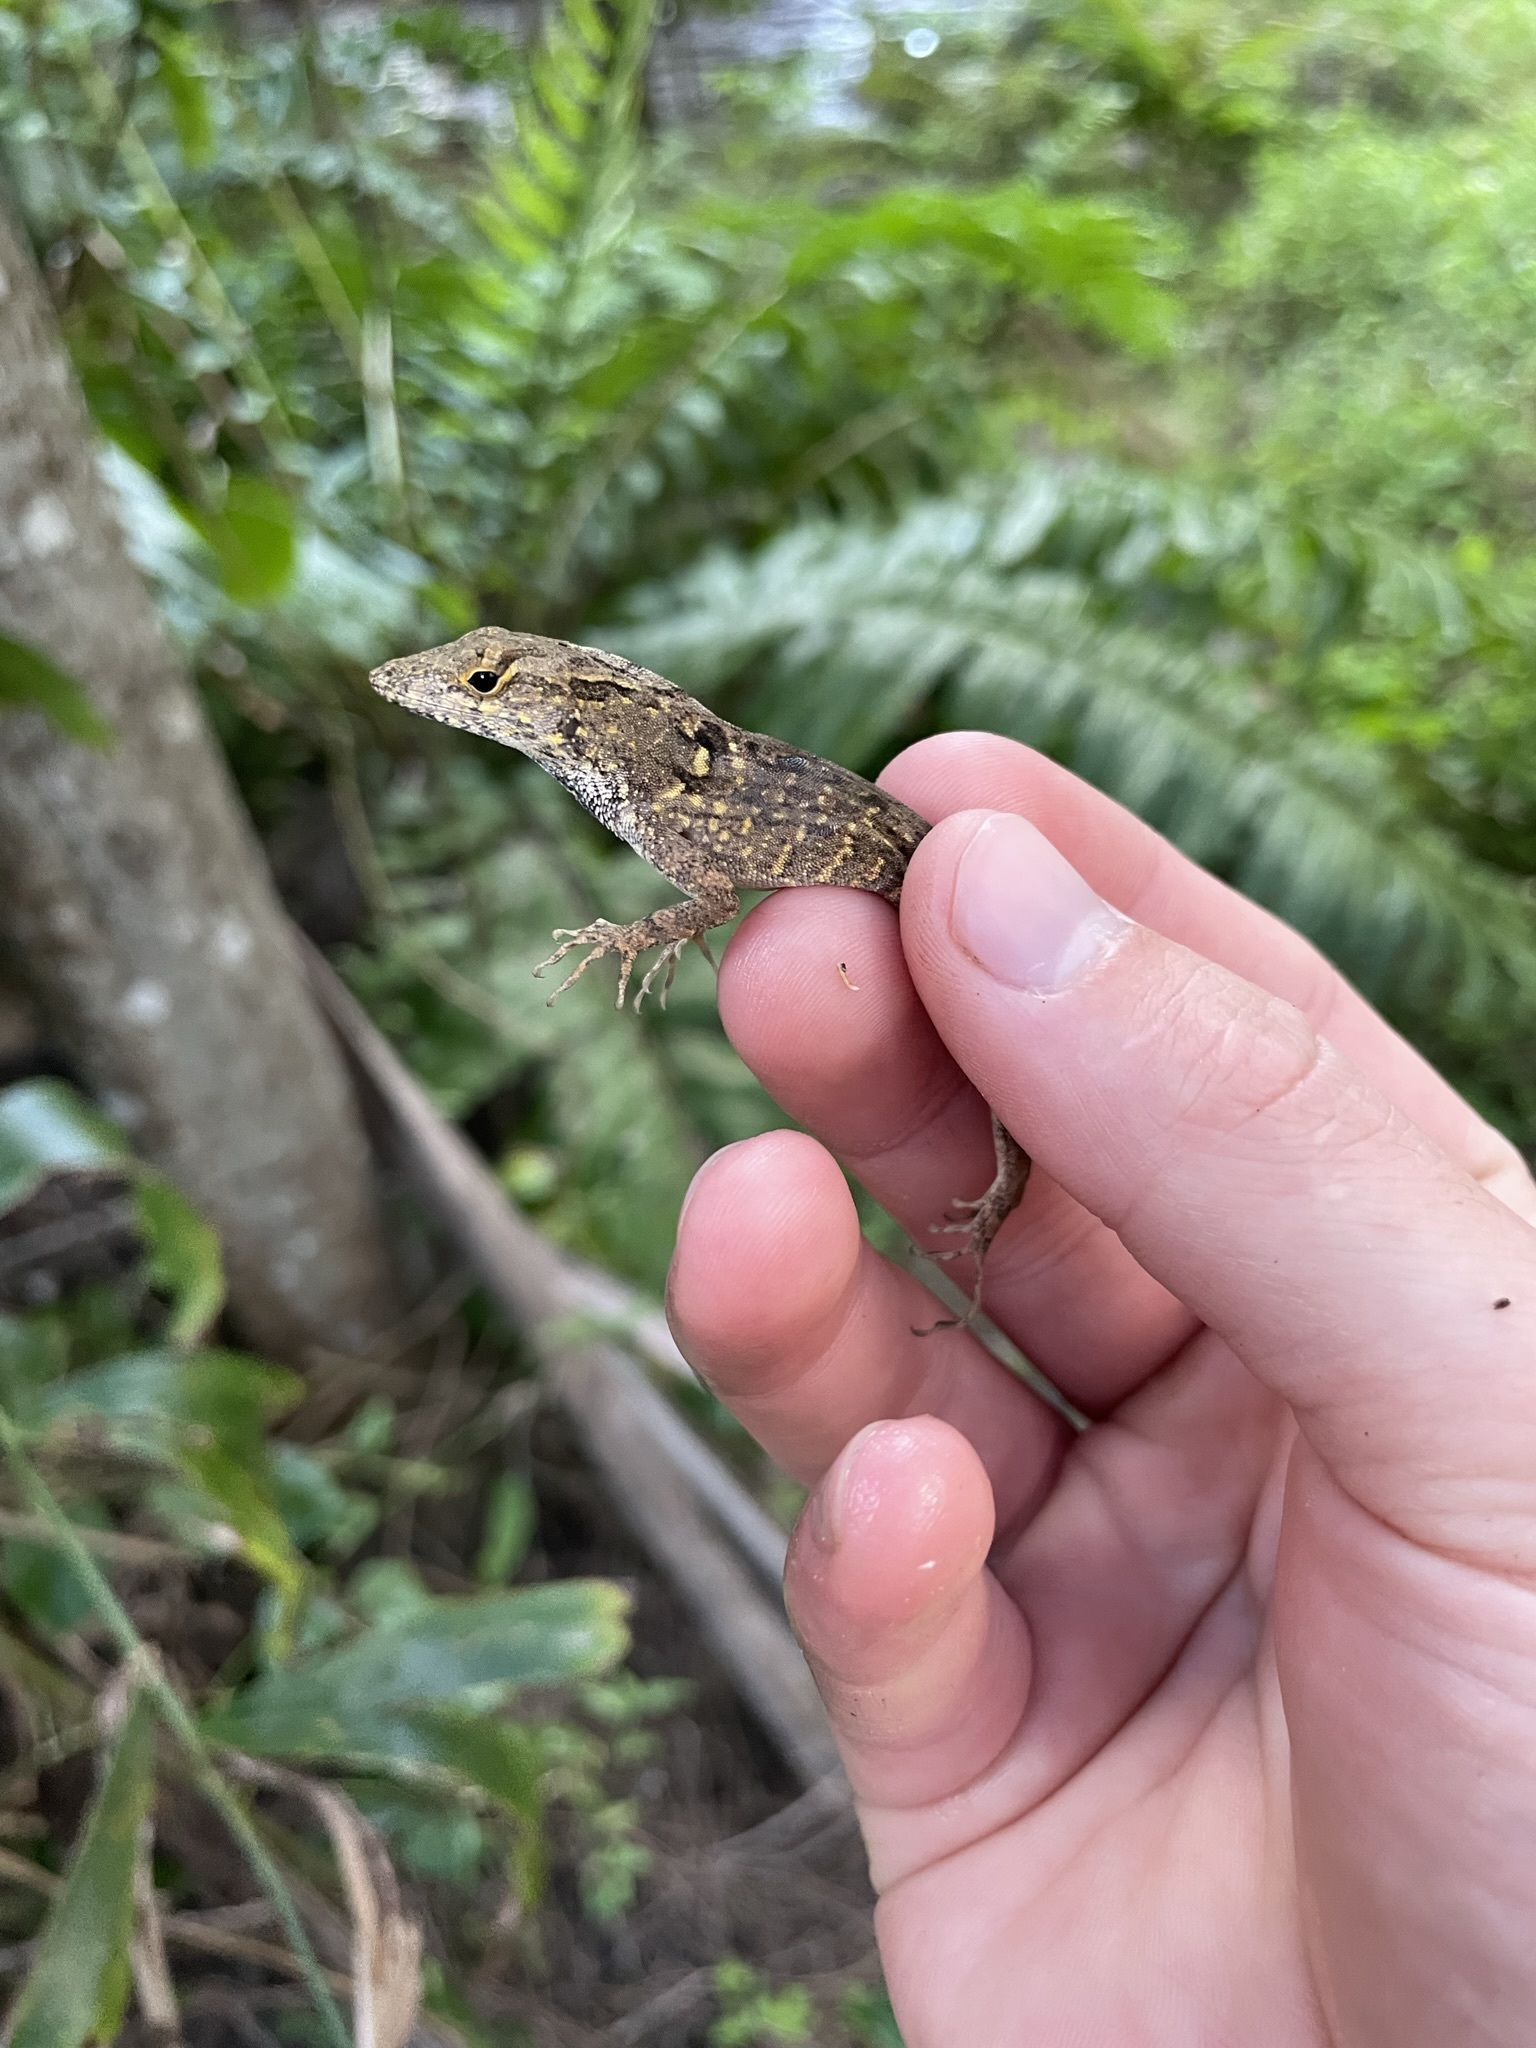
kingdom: Animalia
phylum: Chordata
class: Squamata
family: Dactyloidae
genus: Anolis
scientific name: Anolis sagrei
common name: Brown anole
